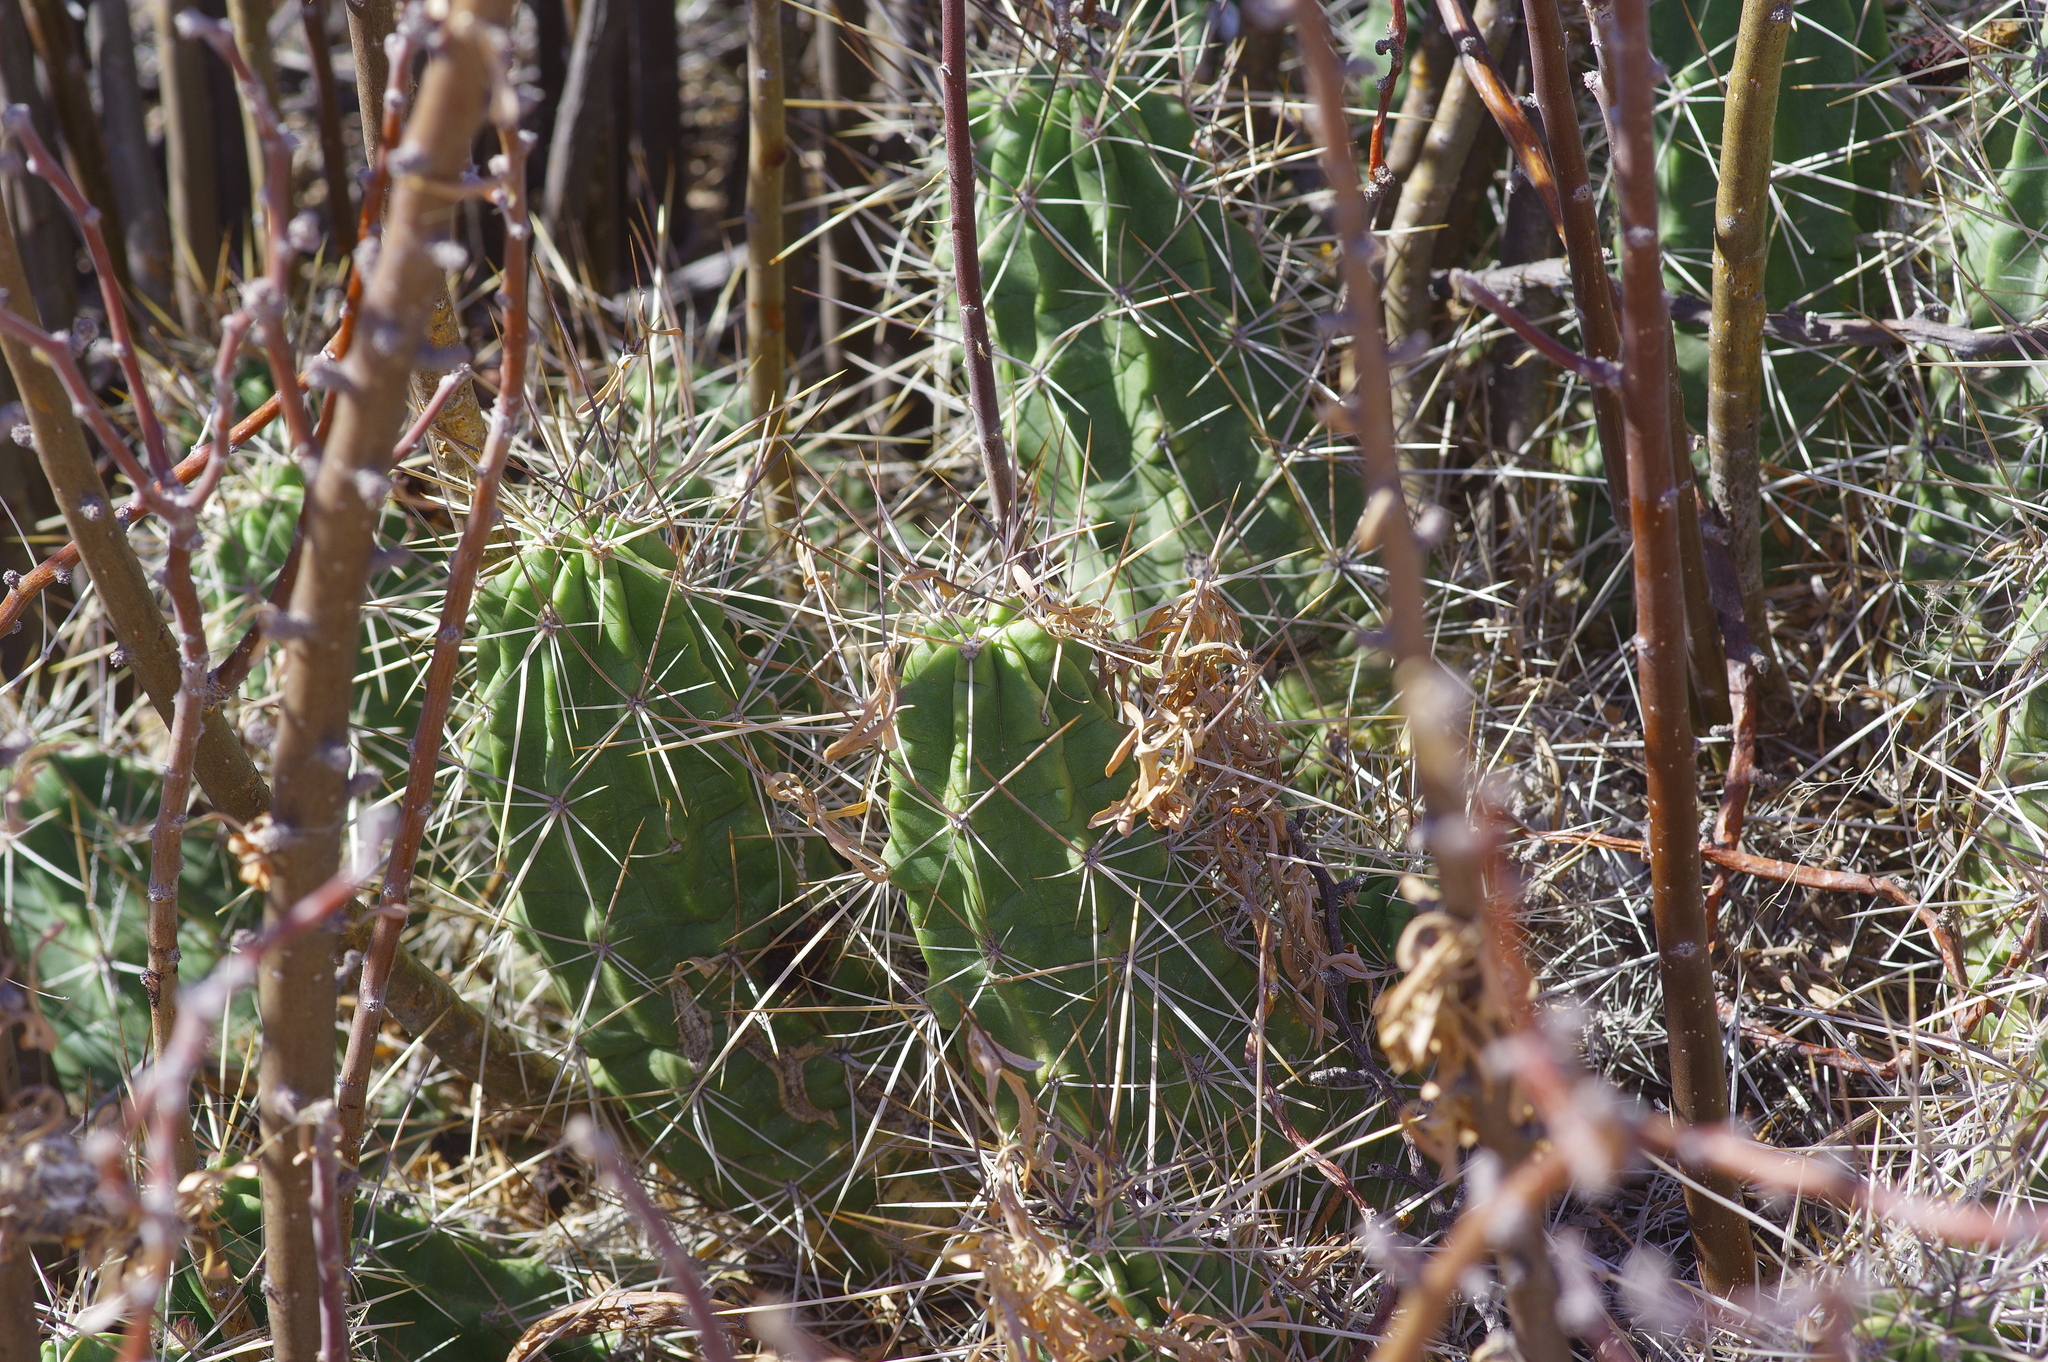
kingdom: Plantae
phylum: Tracheophyta
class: Magnoliopsida
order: Caryophyllales
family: Cactaceae
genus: Echinocereus
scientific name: Echinocereus enneacanthus
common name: Pitaya
